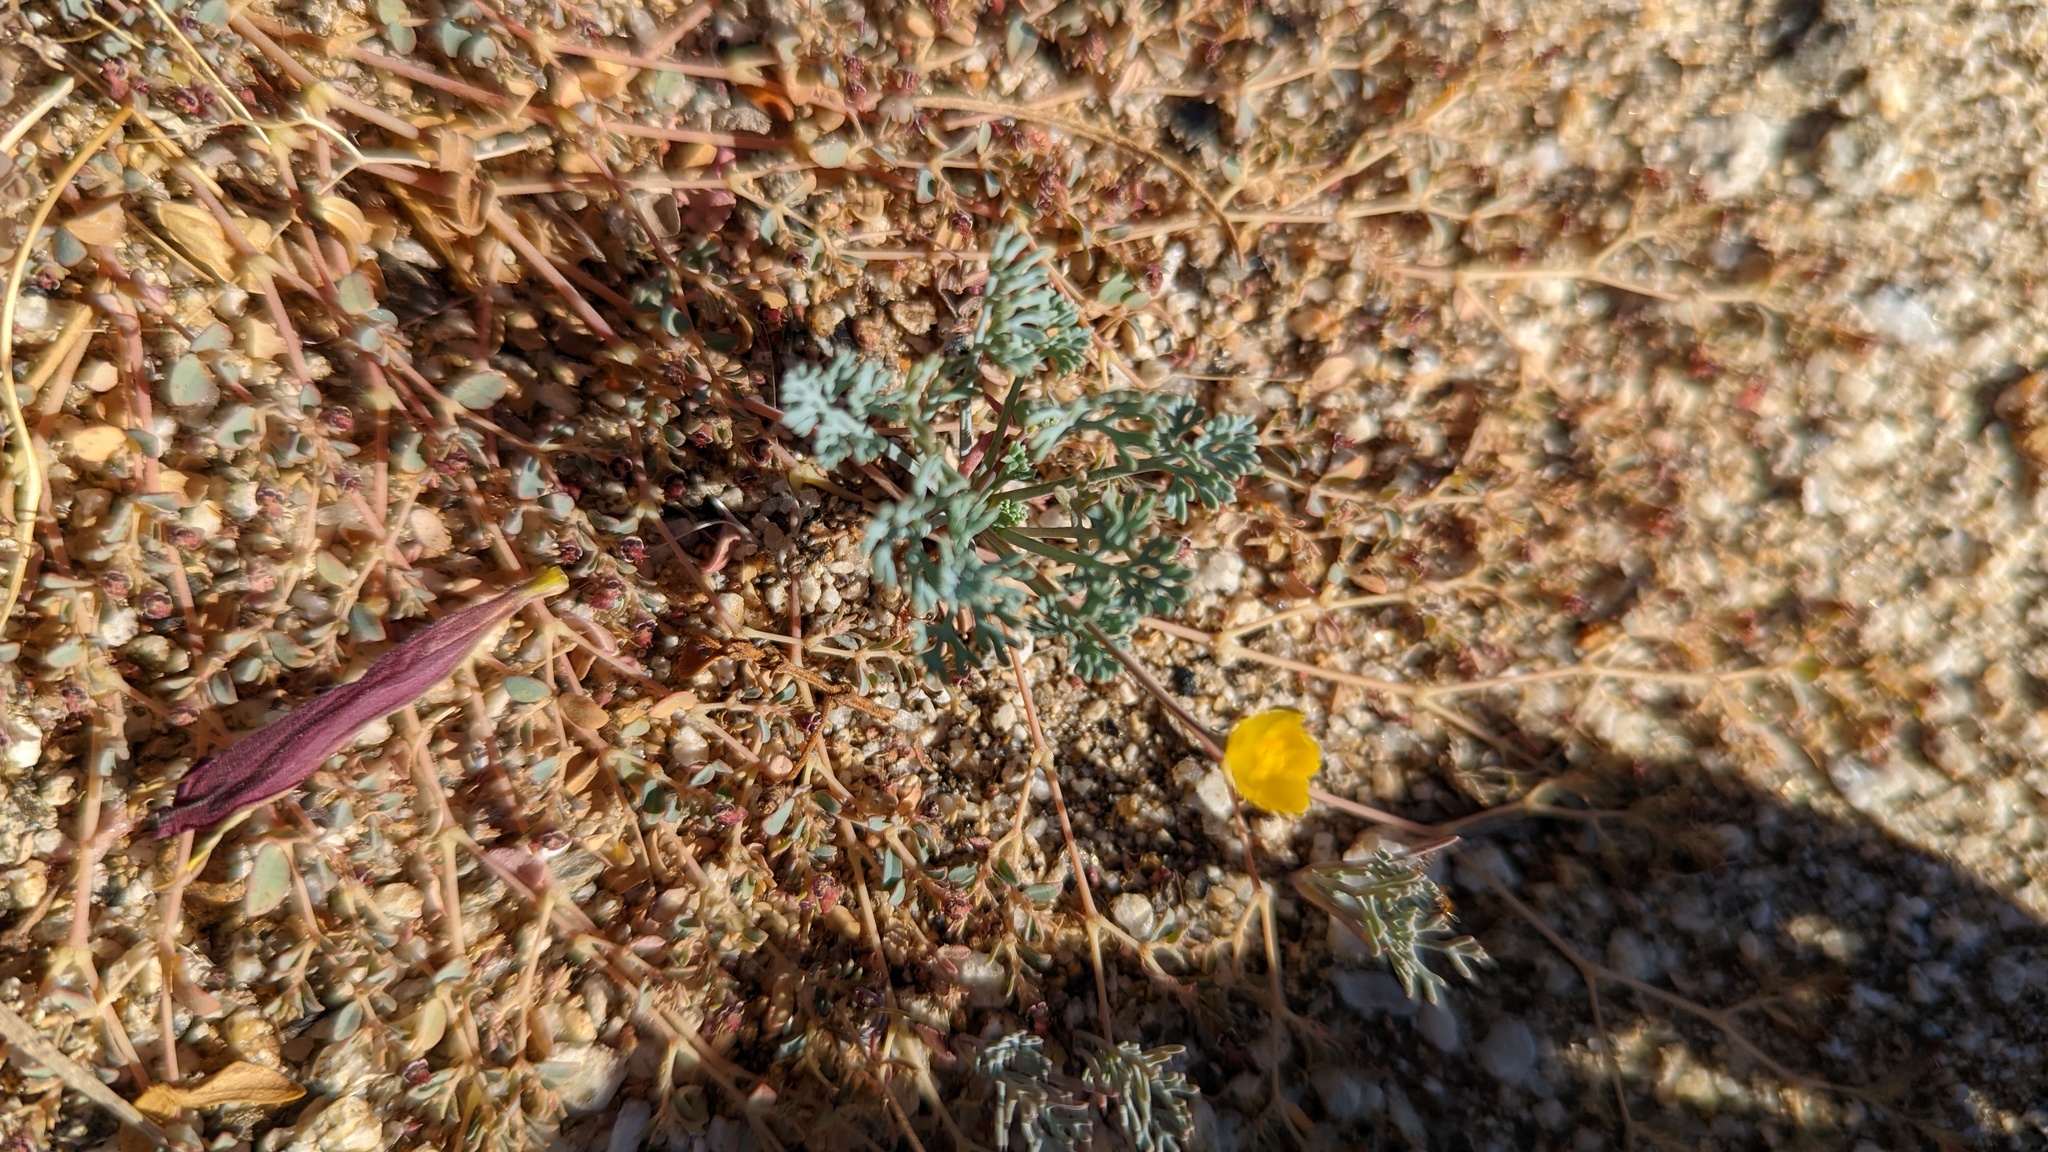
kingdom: Plantae
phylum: Tracheophyta
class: Magnoliopsida
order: Ranunculales
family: Papaveraceae
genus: Eschscholzia
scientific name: Eschscholzia minutiflora
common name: Small-flower california-poppy
